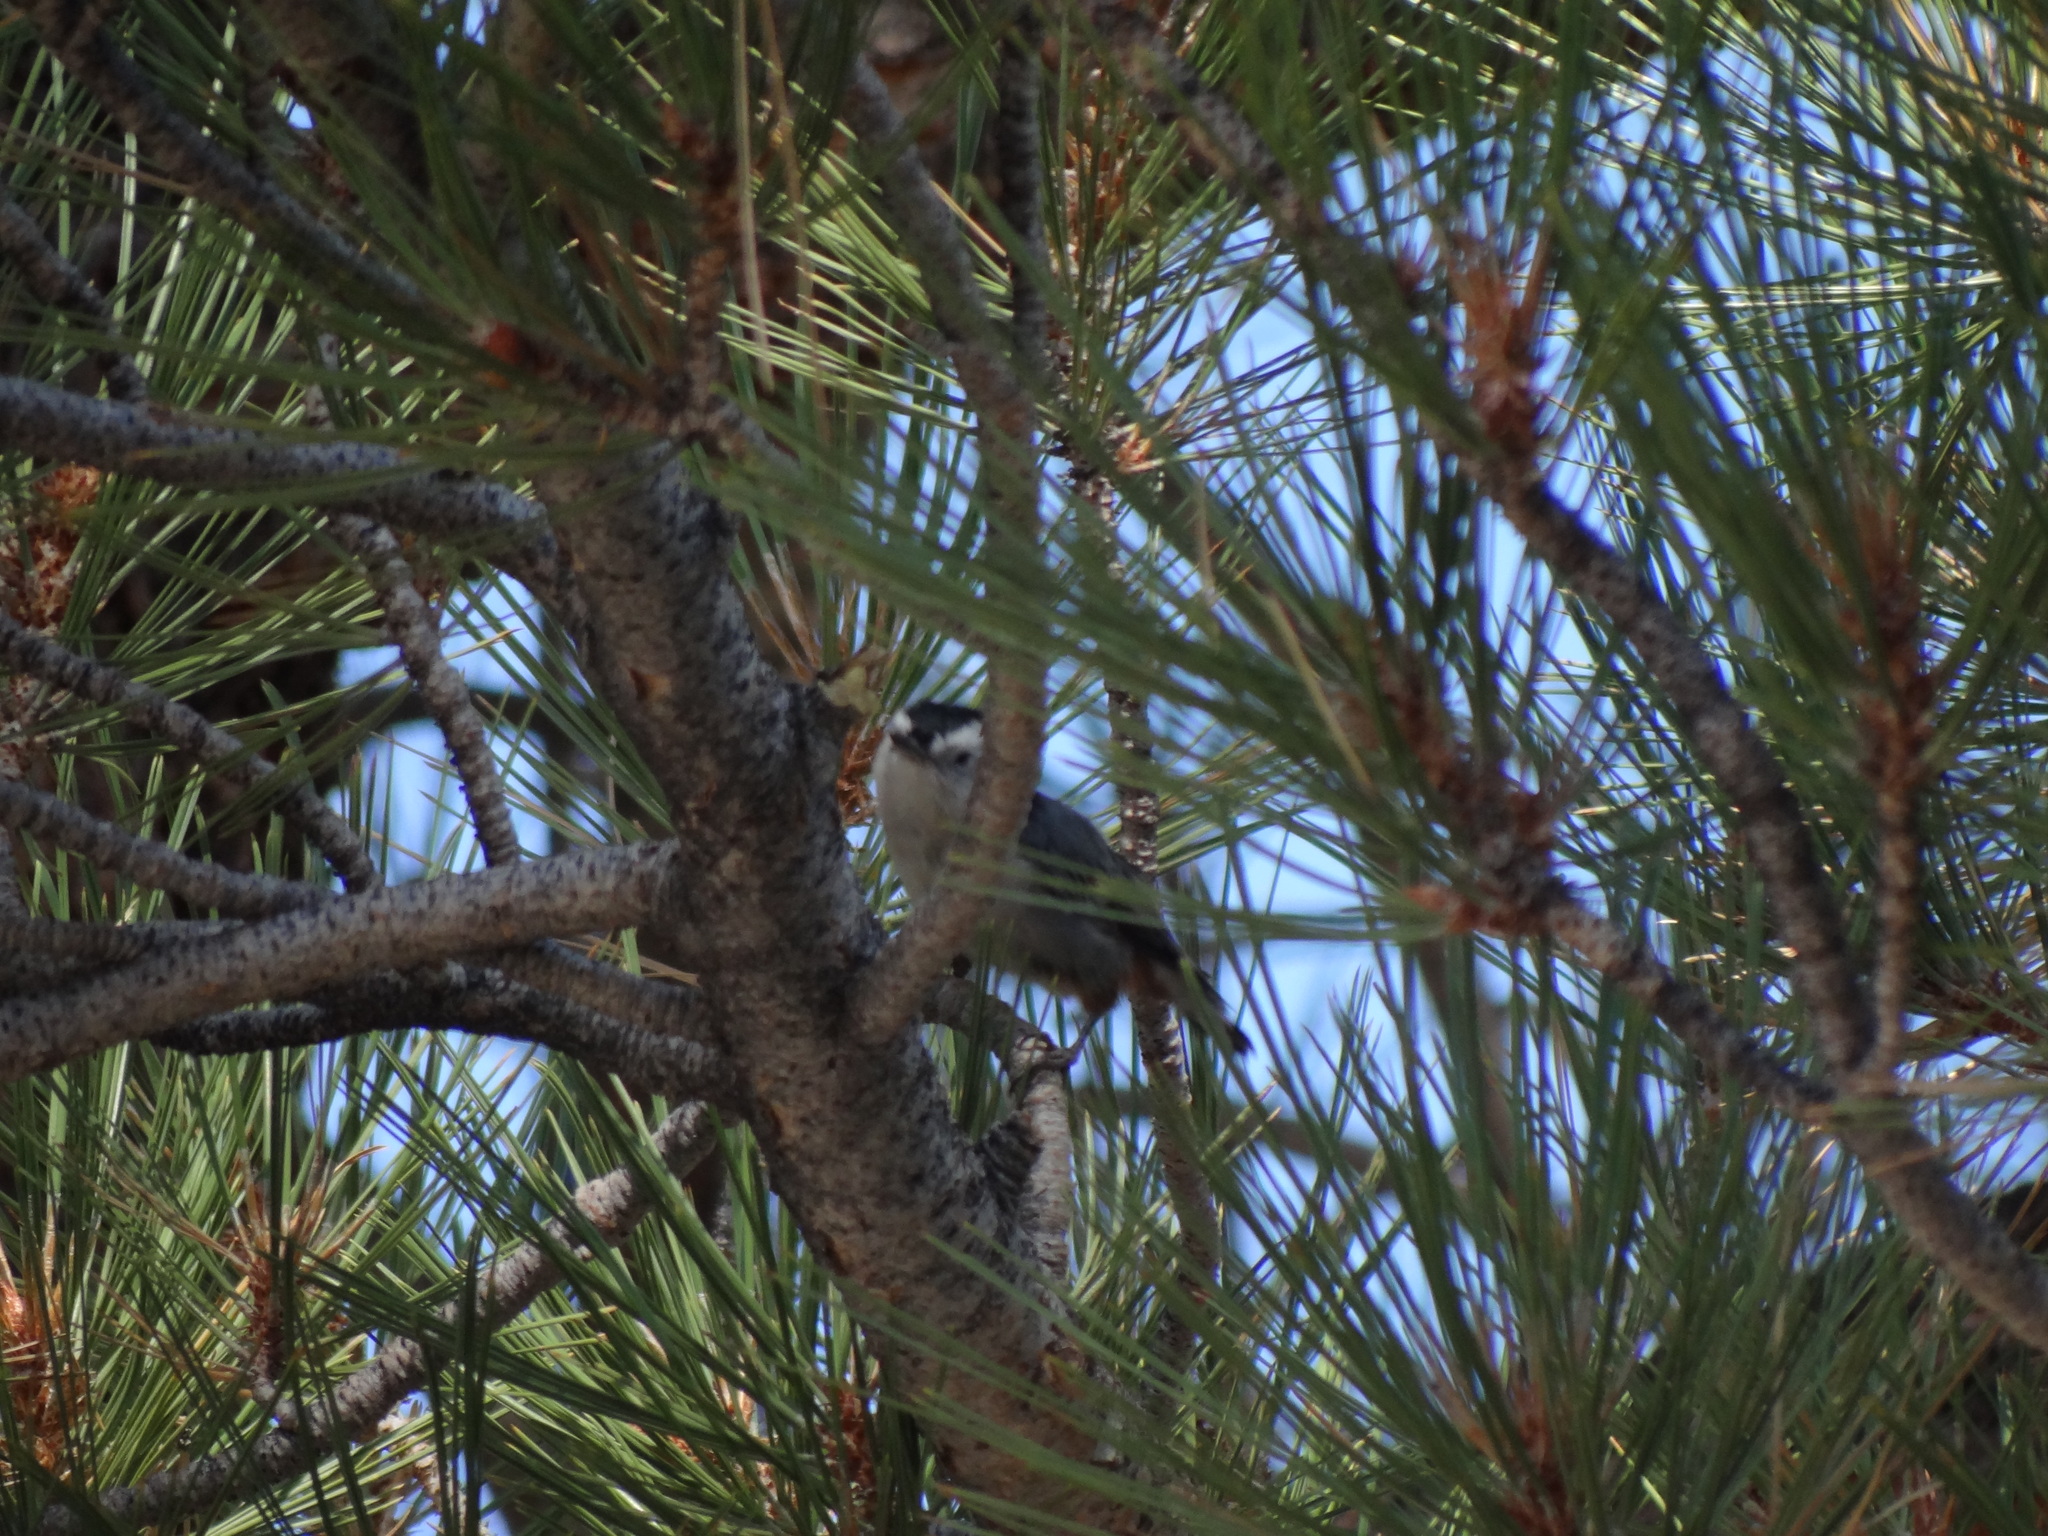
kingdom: Animalia
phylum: Chordata
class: Aves
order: Passeriformes
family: Sittidae
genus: Sitta
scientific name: Sitta carolinensis
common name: White-breasted nuthatch
